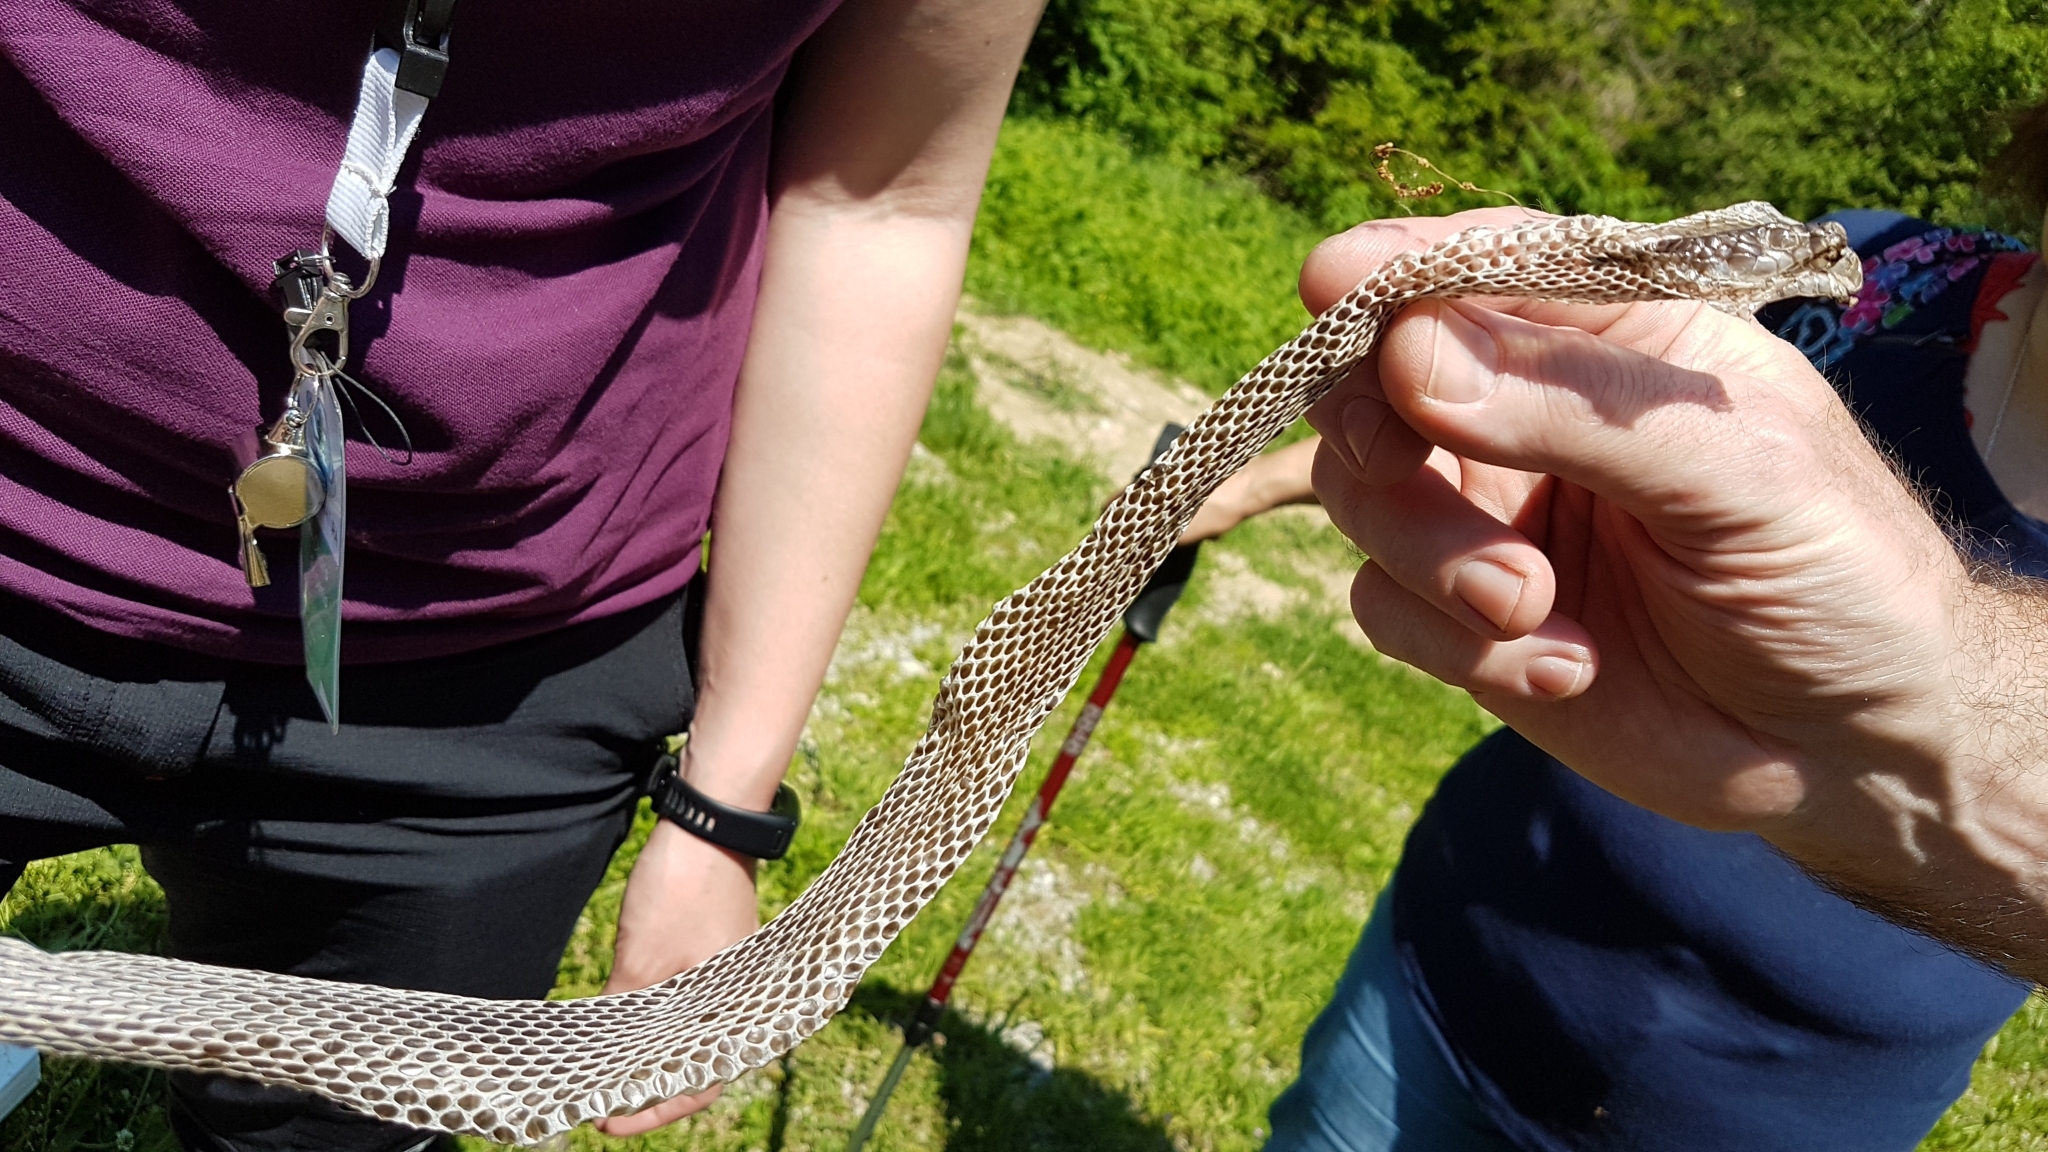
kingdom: Animalia
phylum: Chordata
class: Squamata
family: Colubridae
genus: Hierophis
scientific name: Hierophis viridiflavus
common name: Green whip snake
